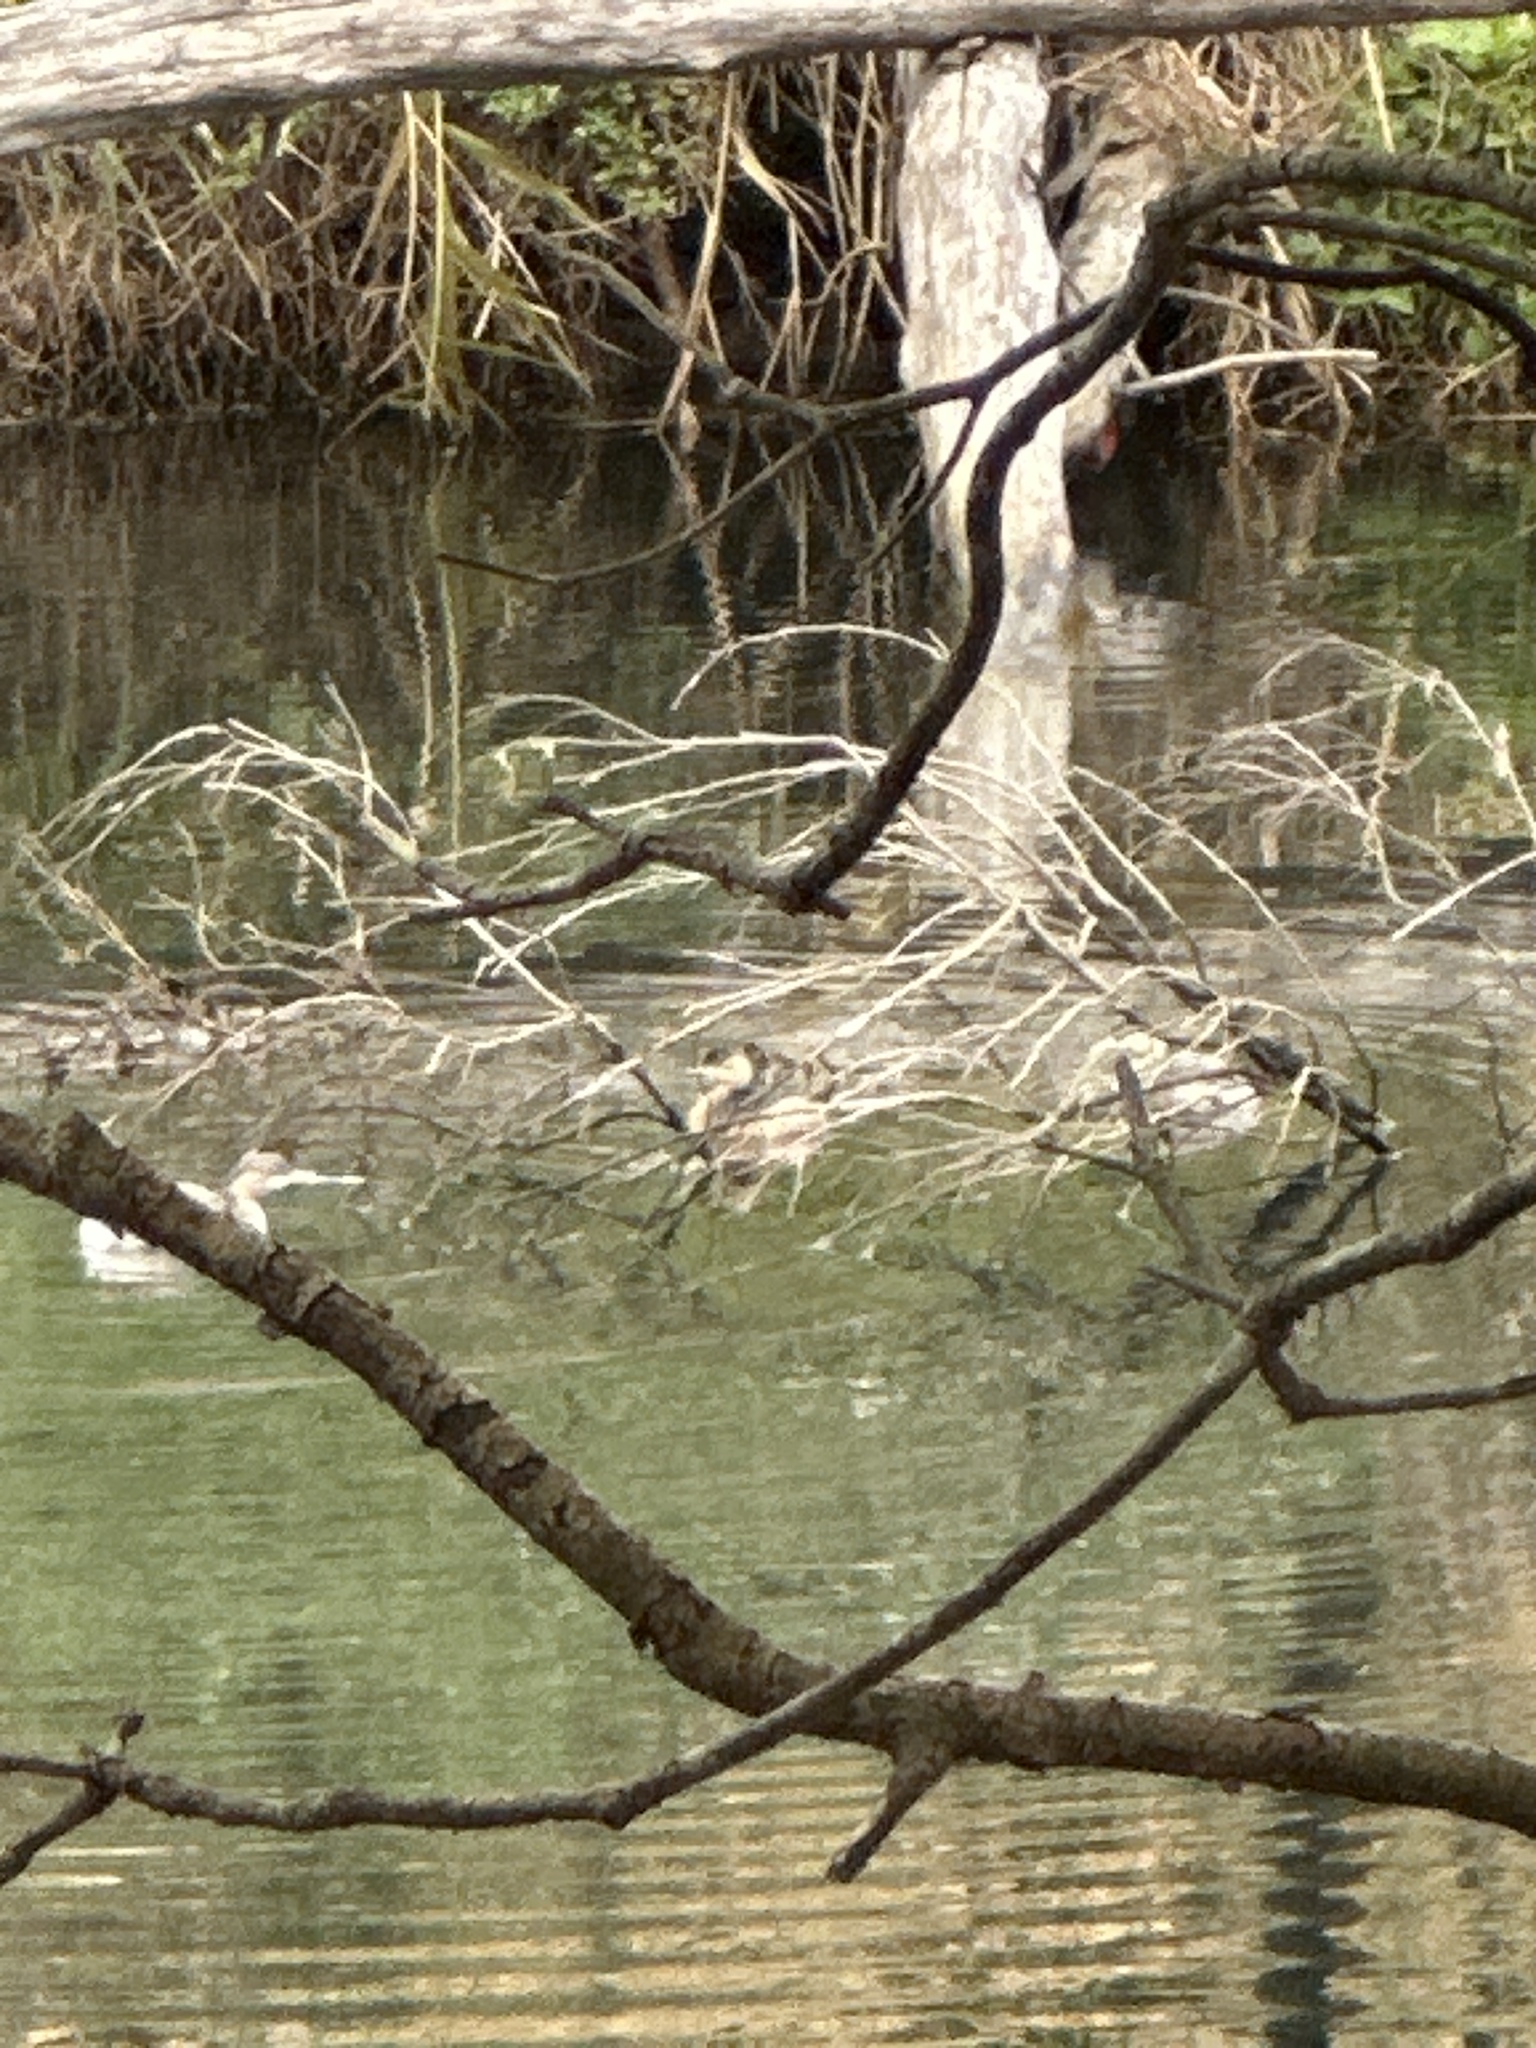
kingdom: Animalia
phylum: Chordata
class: Aves
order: Podicipediformes
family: Podicipedidae
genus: Tachybaptus
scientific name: Tachybaptus novaehollandiae
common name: Australasian grebe
